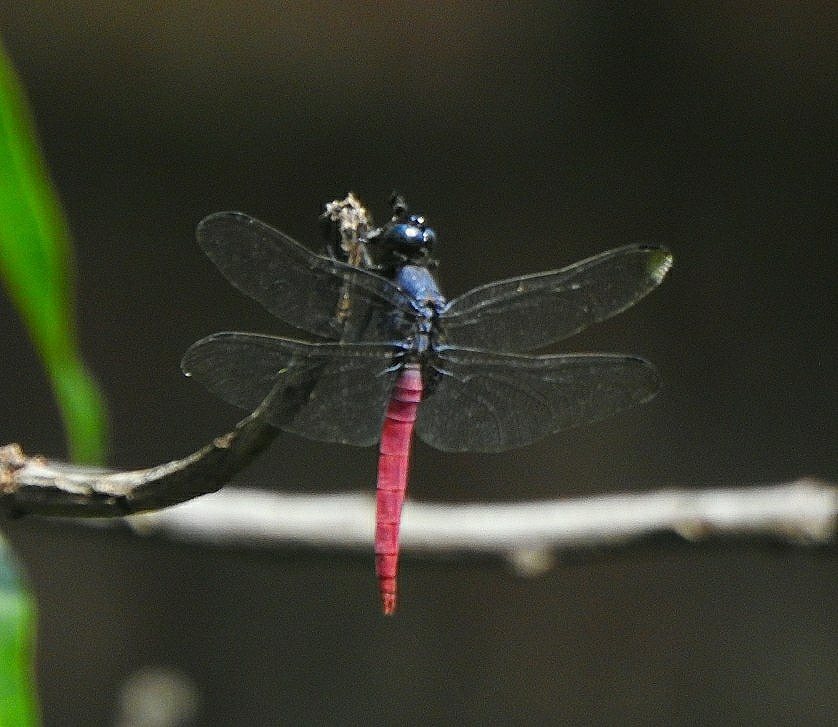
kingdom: Animalia
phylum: Arthropoda
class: Insecta
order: Odonata
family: Libellulidae
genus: Orthetrum
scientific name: Orthetrum pruinosum
